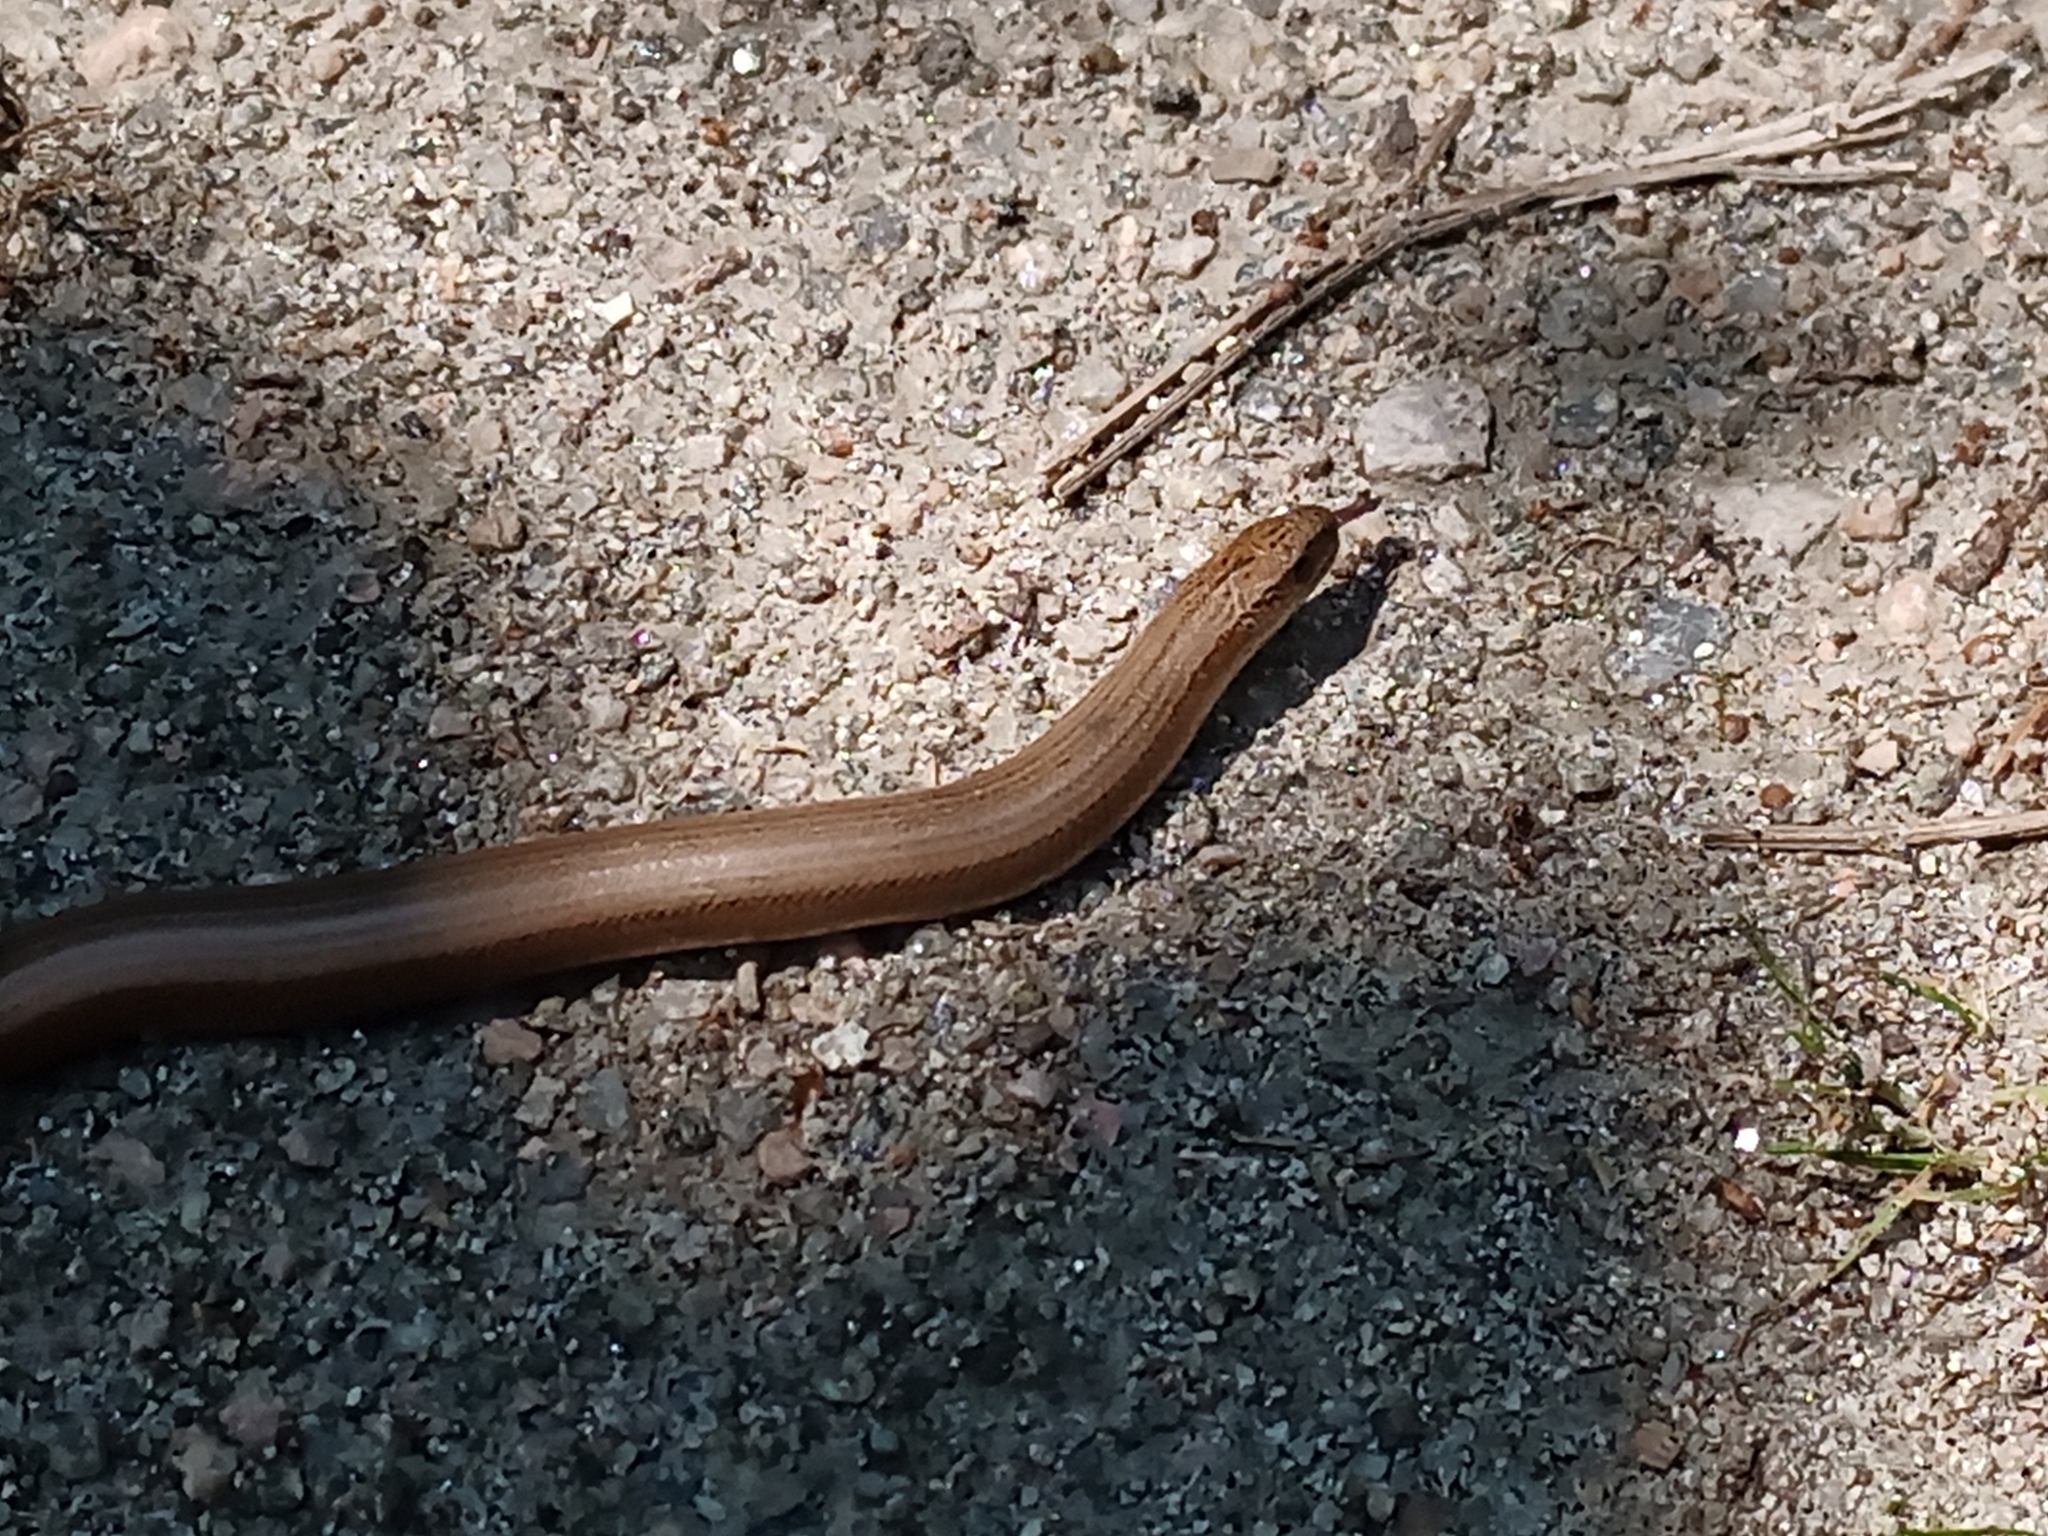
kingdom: Animalia
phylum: Chordata
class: Squamata
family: Anguidae
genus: Anguis
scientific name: Anguis fragilis
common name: Slow worm
